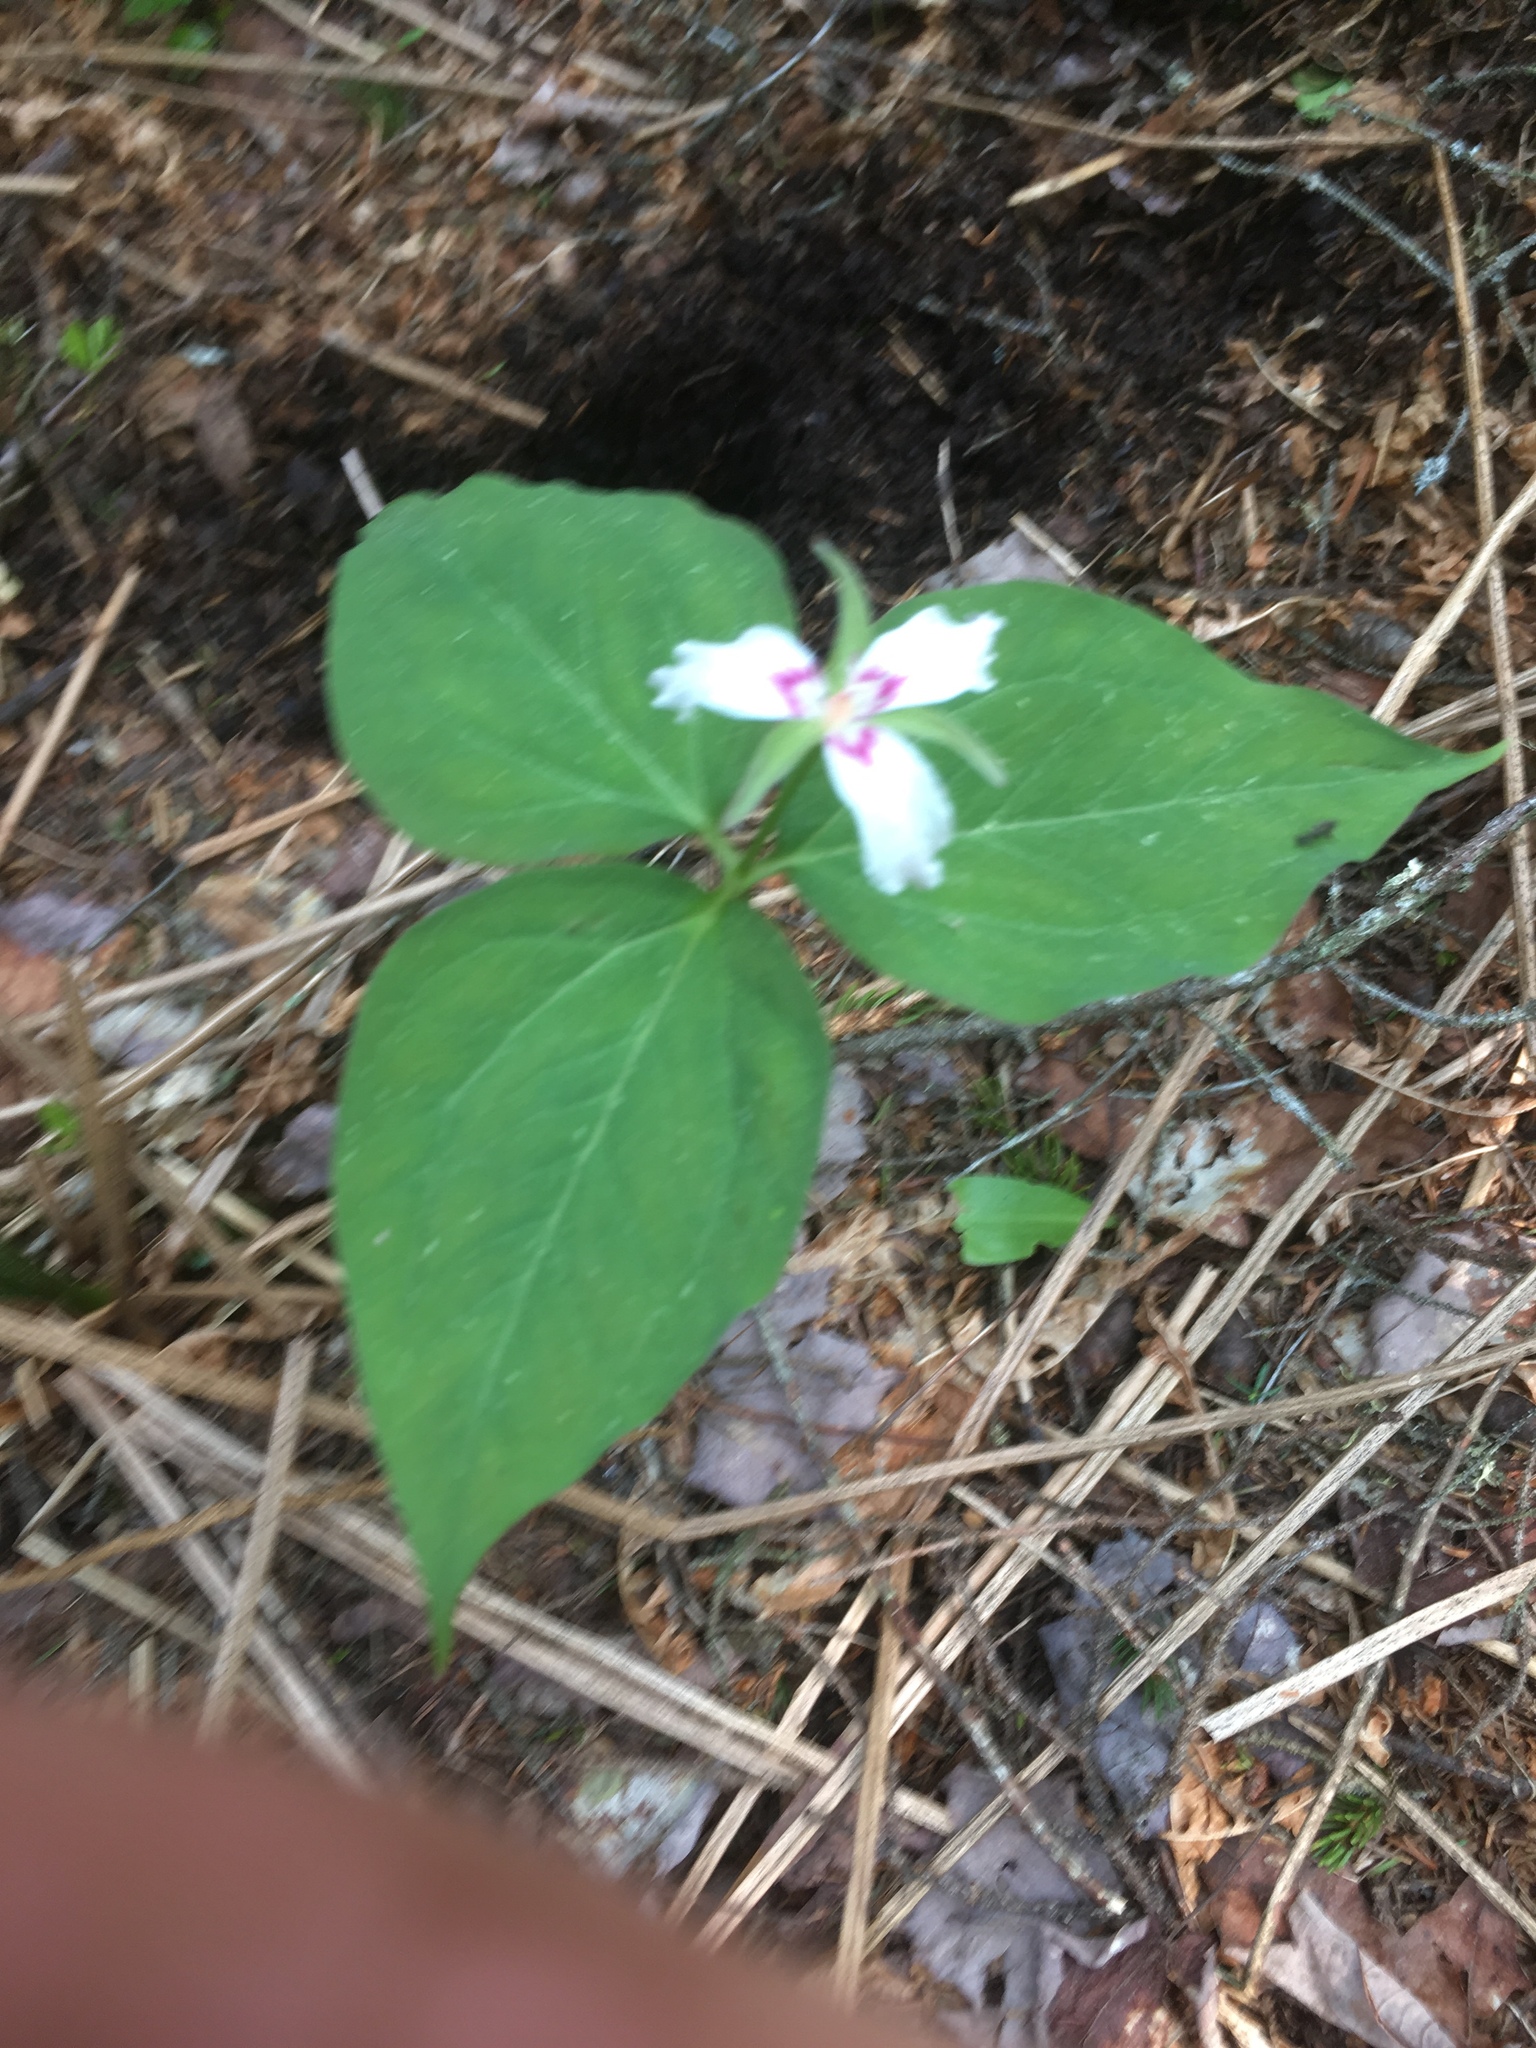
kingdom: Plantae
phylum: Tracheophyta
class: Liliopsida
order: Liliales
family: Melanthiaceae
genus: Trillium
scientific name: Trillium undulatum
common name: Paint trillium
